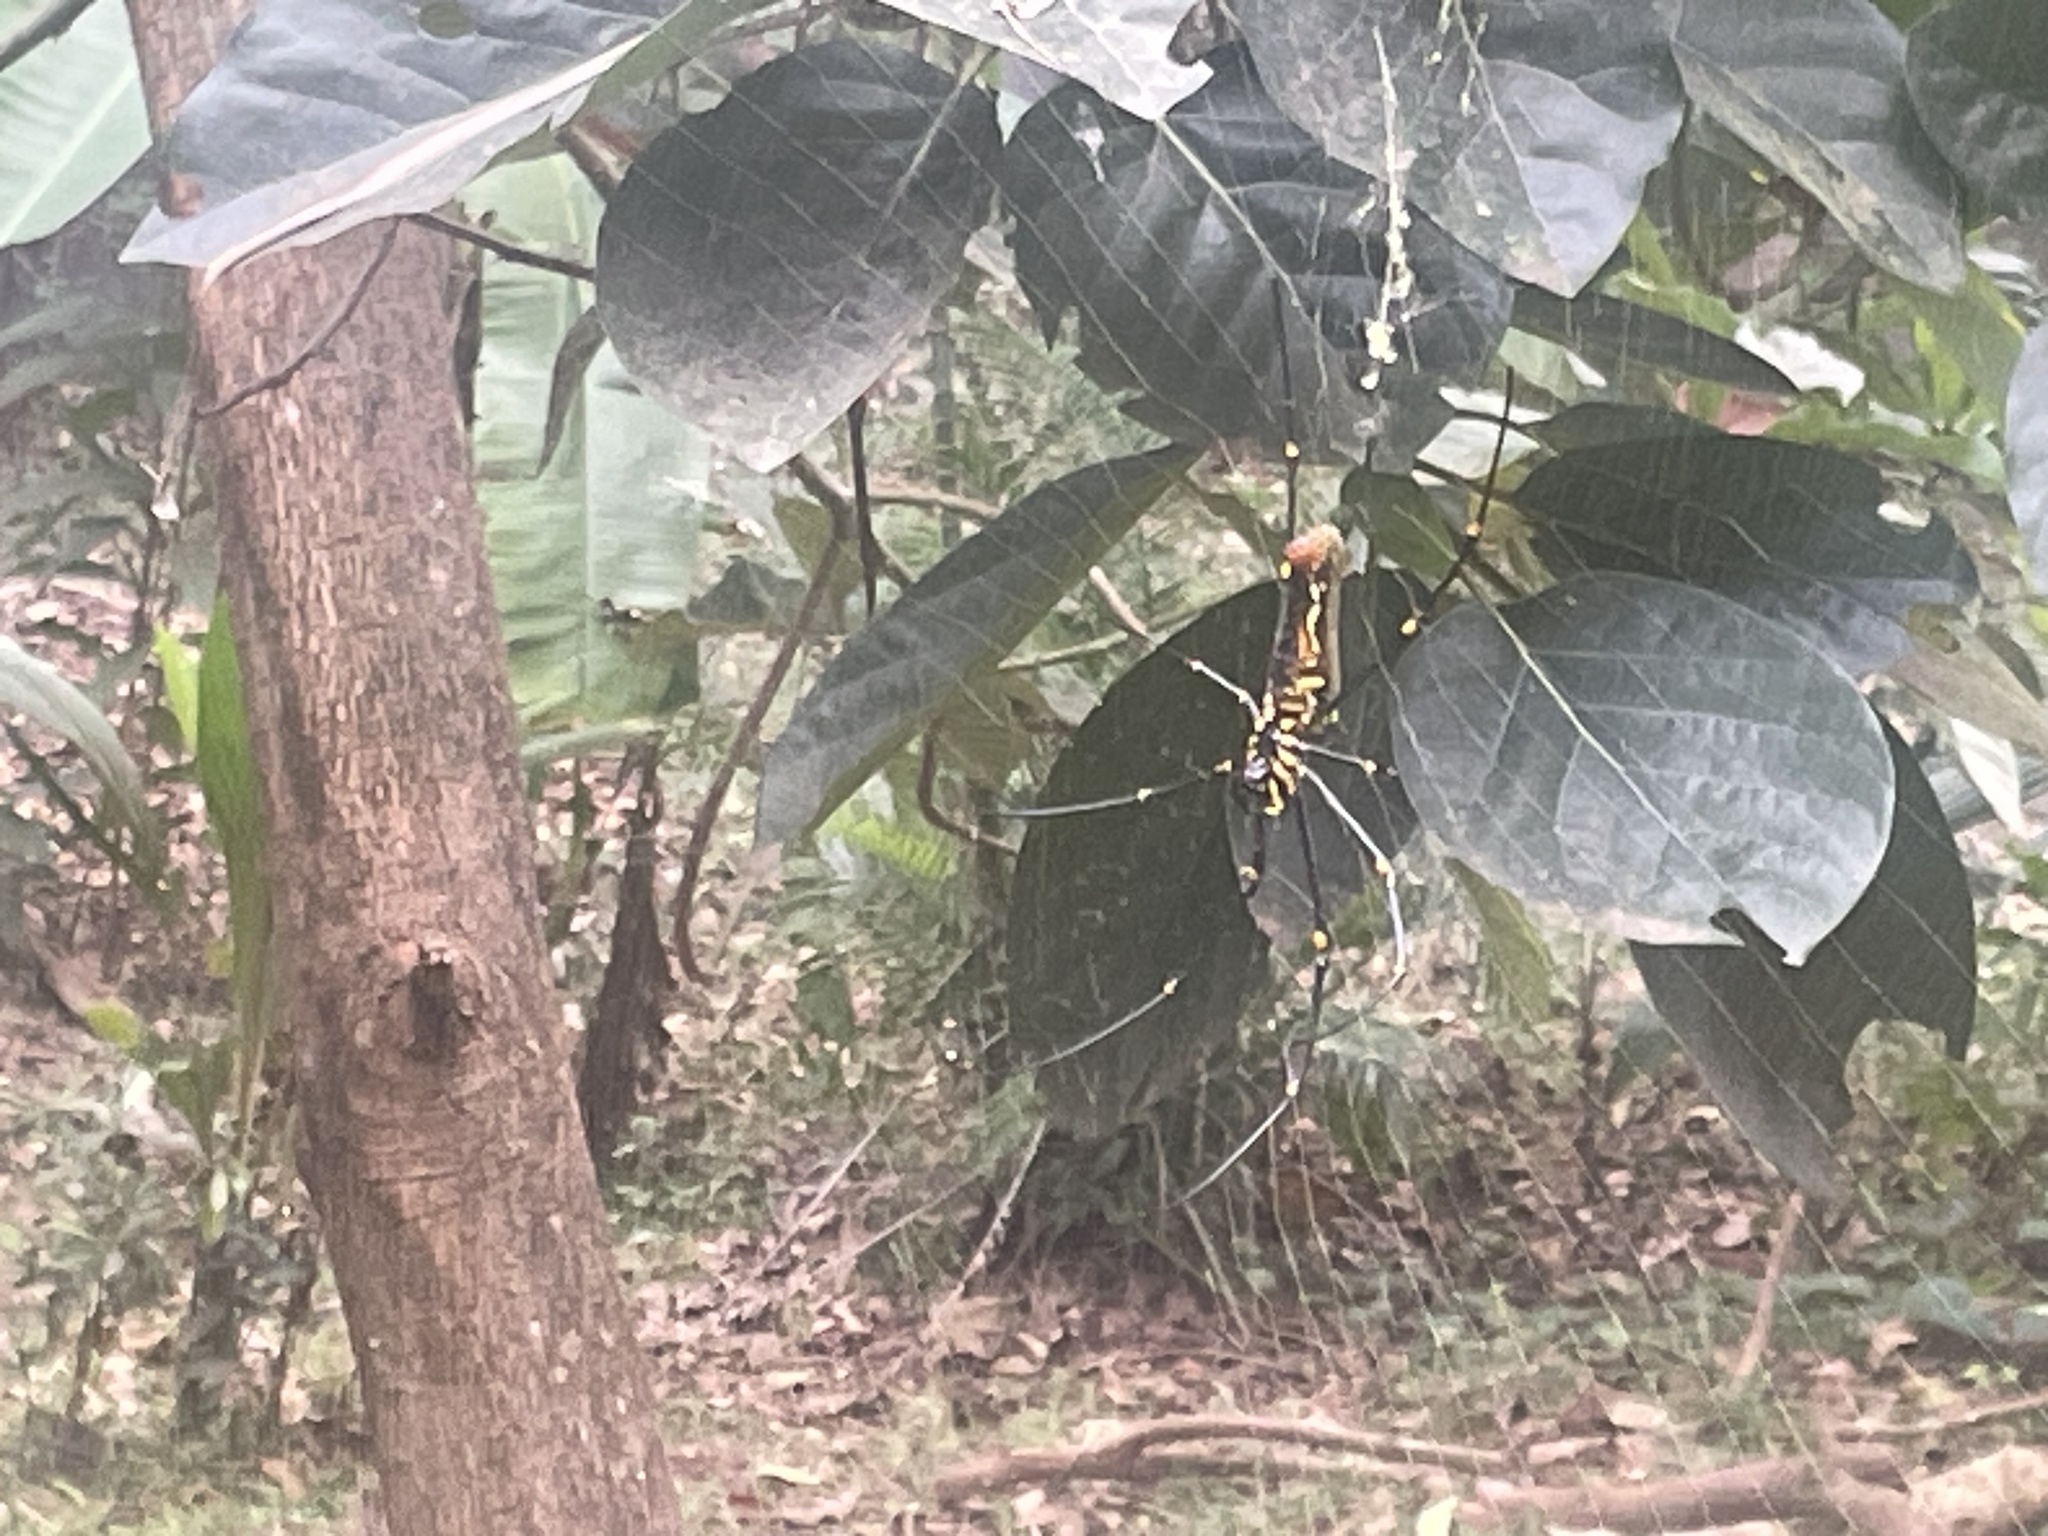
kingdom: Animalia
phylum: Arthropoda
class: Arachnida
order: Araneae
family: Araneidae
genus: Nephila
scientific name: Nephila pilipes
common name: Giant golden orb weaver
